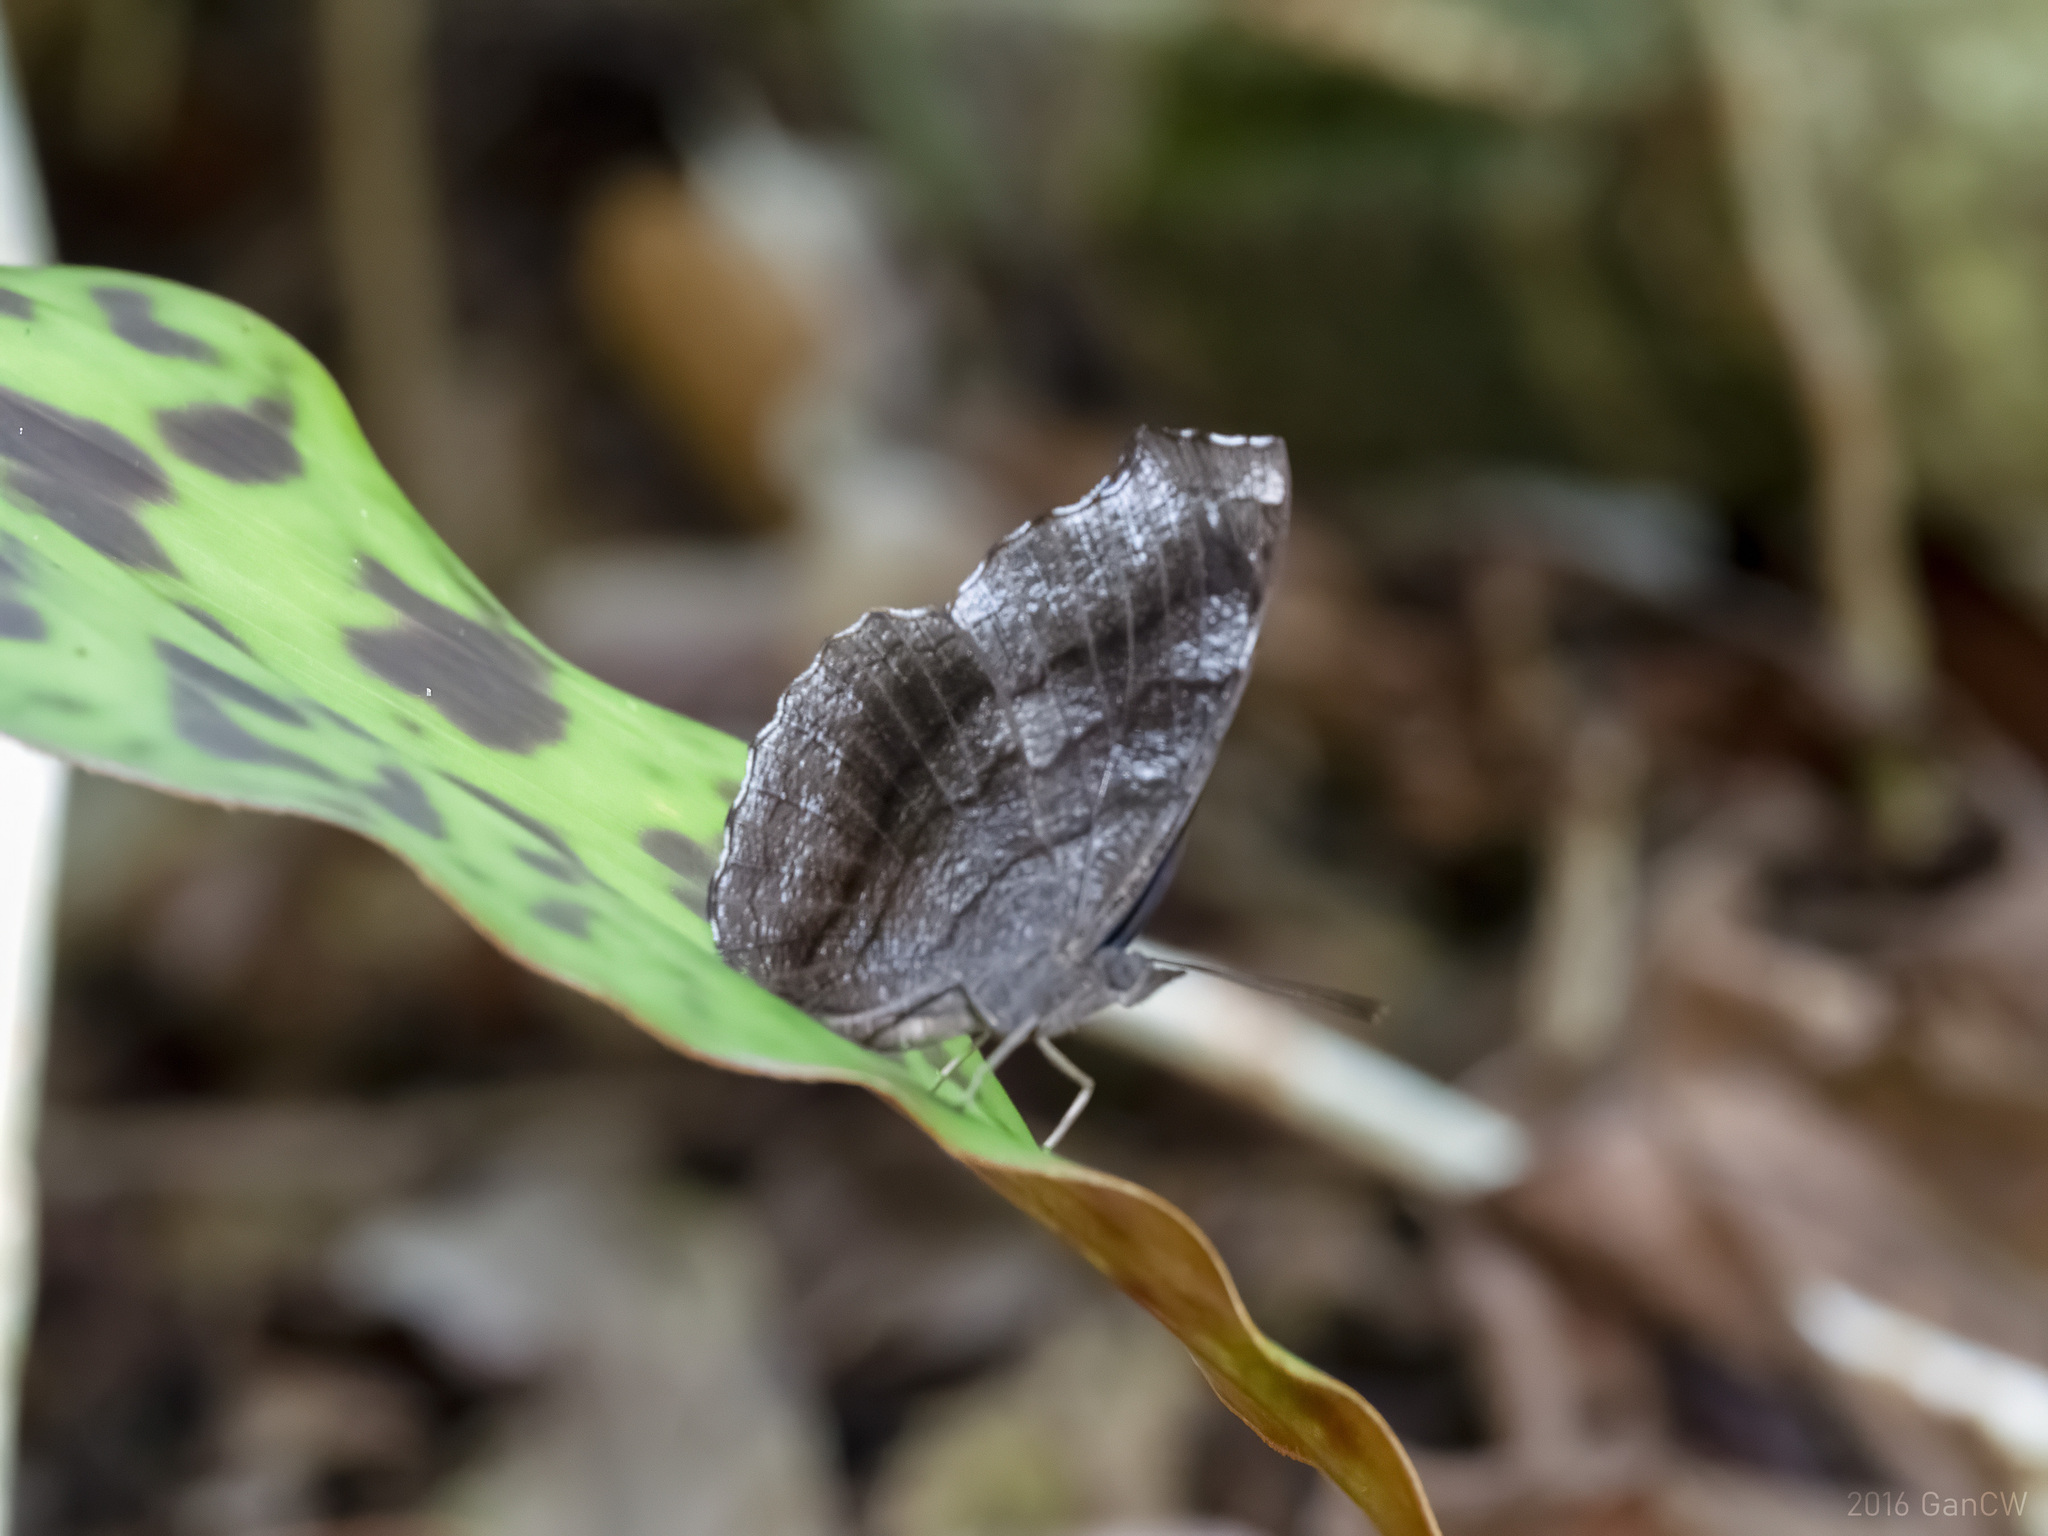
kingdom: Animalia
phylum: Arthropoda
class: Insecta
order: Lepidoptera
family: Nymphalidae
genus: Laringa
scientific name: Laringa castelnaui
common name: Blue dandy
